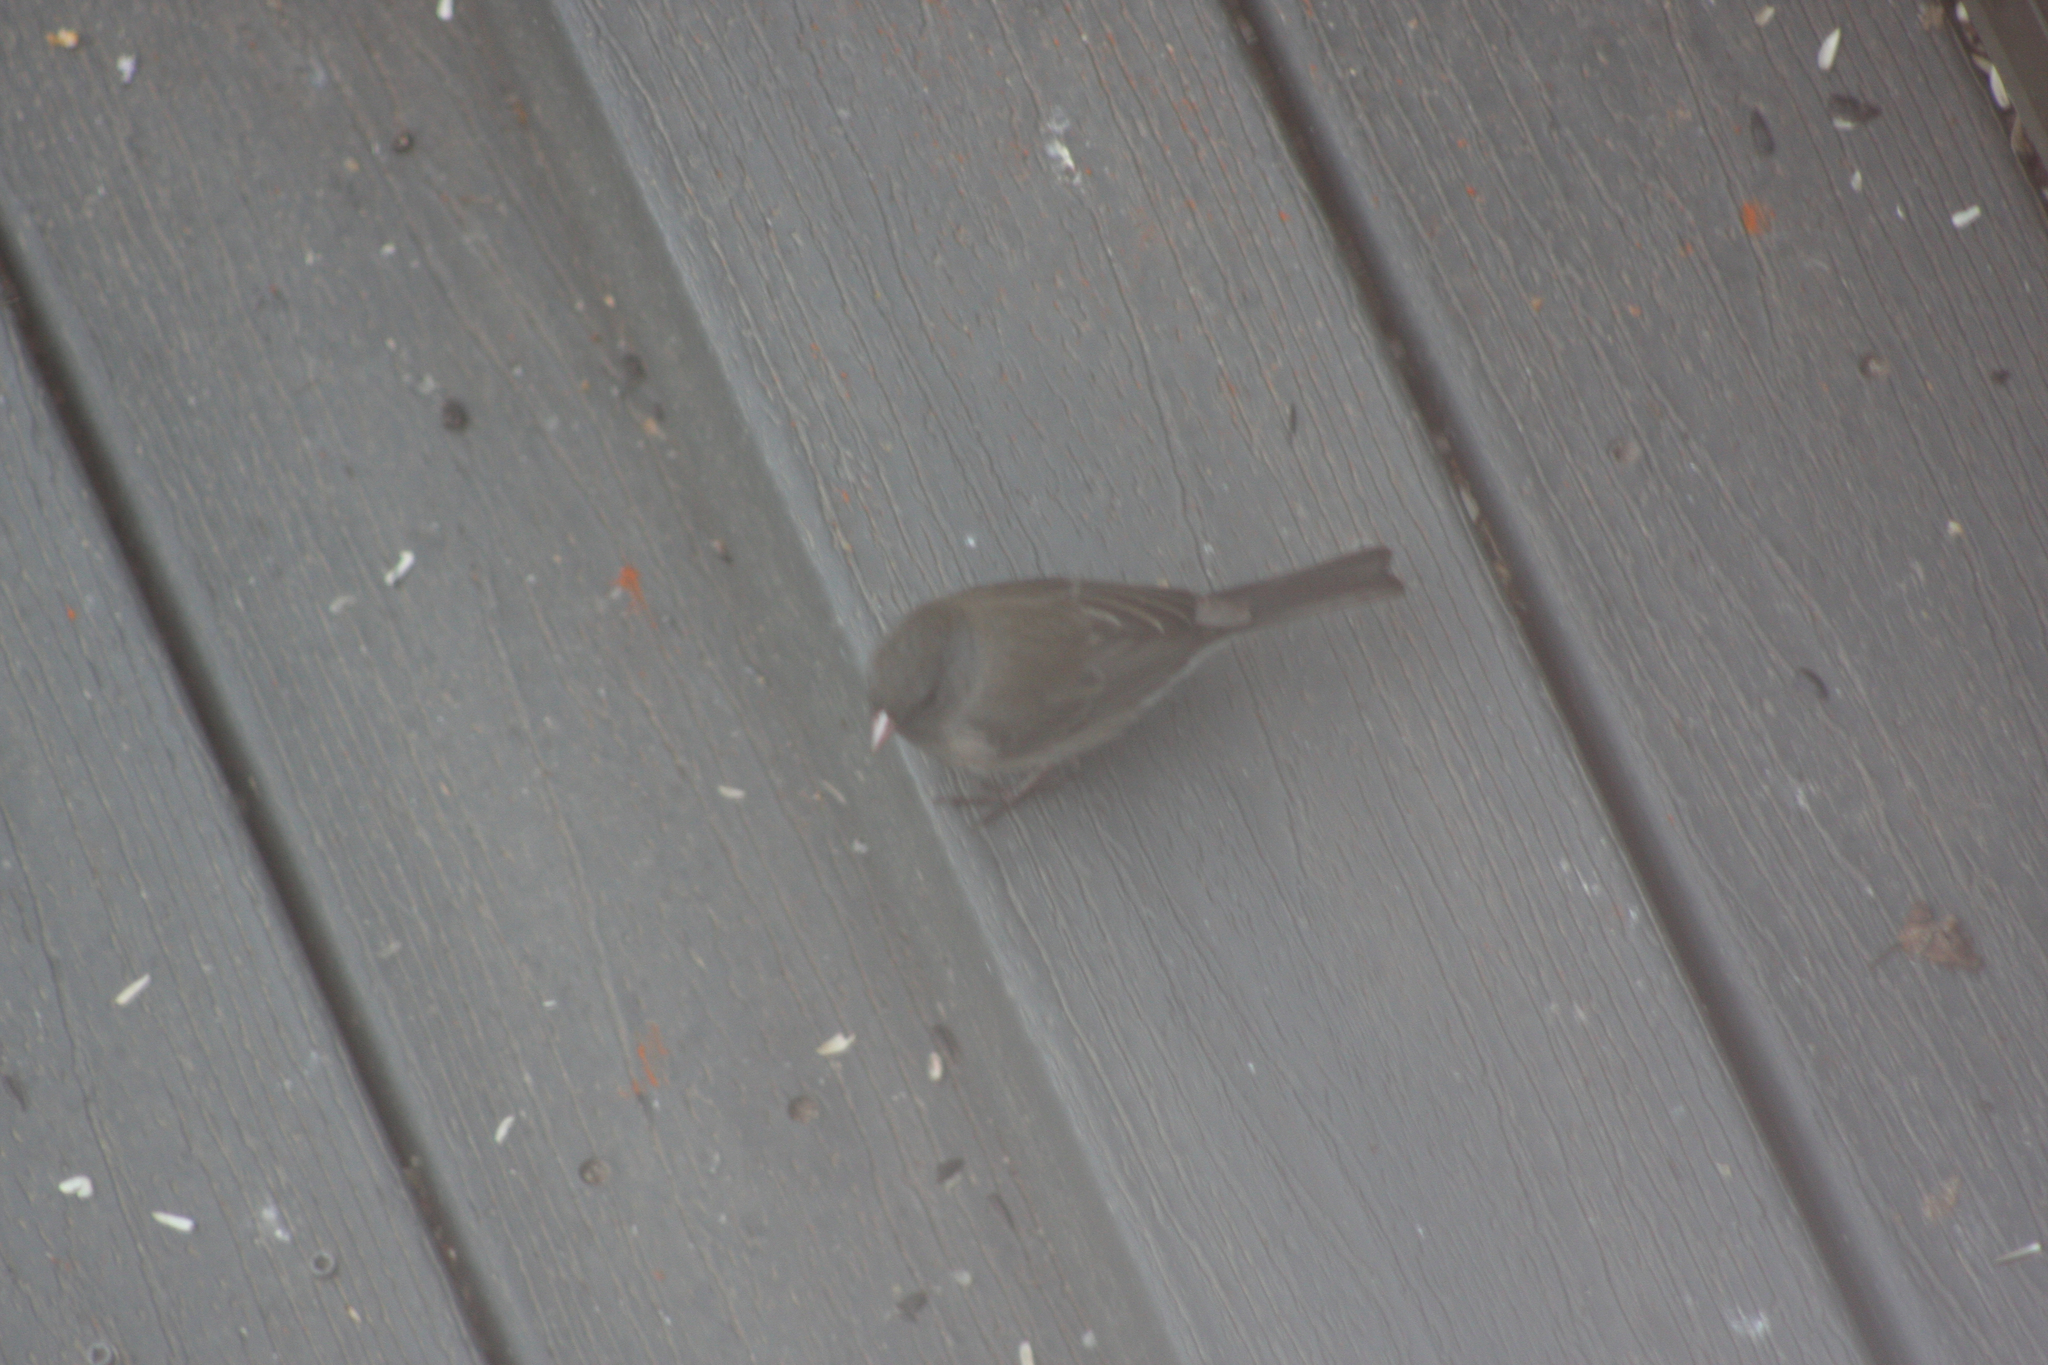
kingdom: Animalia
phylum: Chordata
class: Aves
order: Passeriformes
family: Passerellidae
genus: Junco
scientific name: Junco hyemalis
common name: Dark-eyed junco
